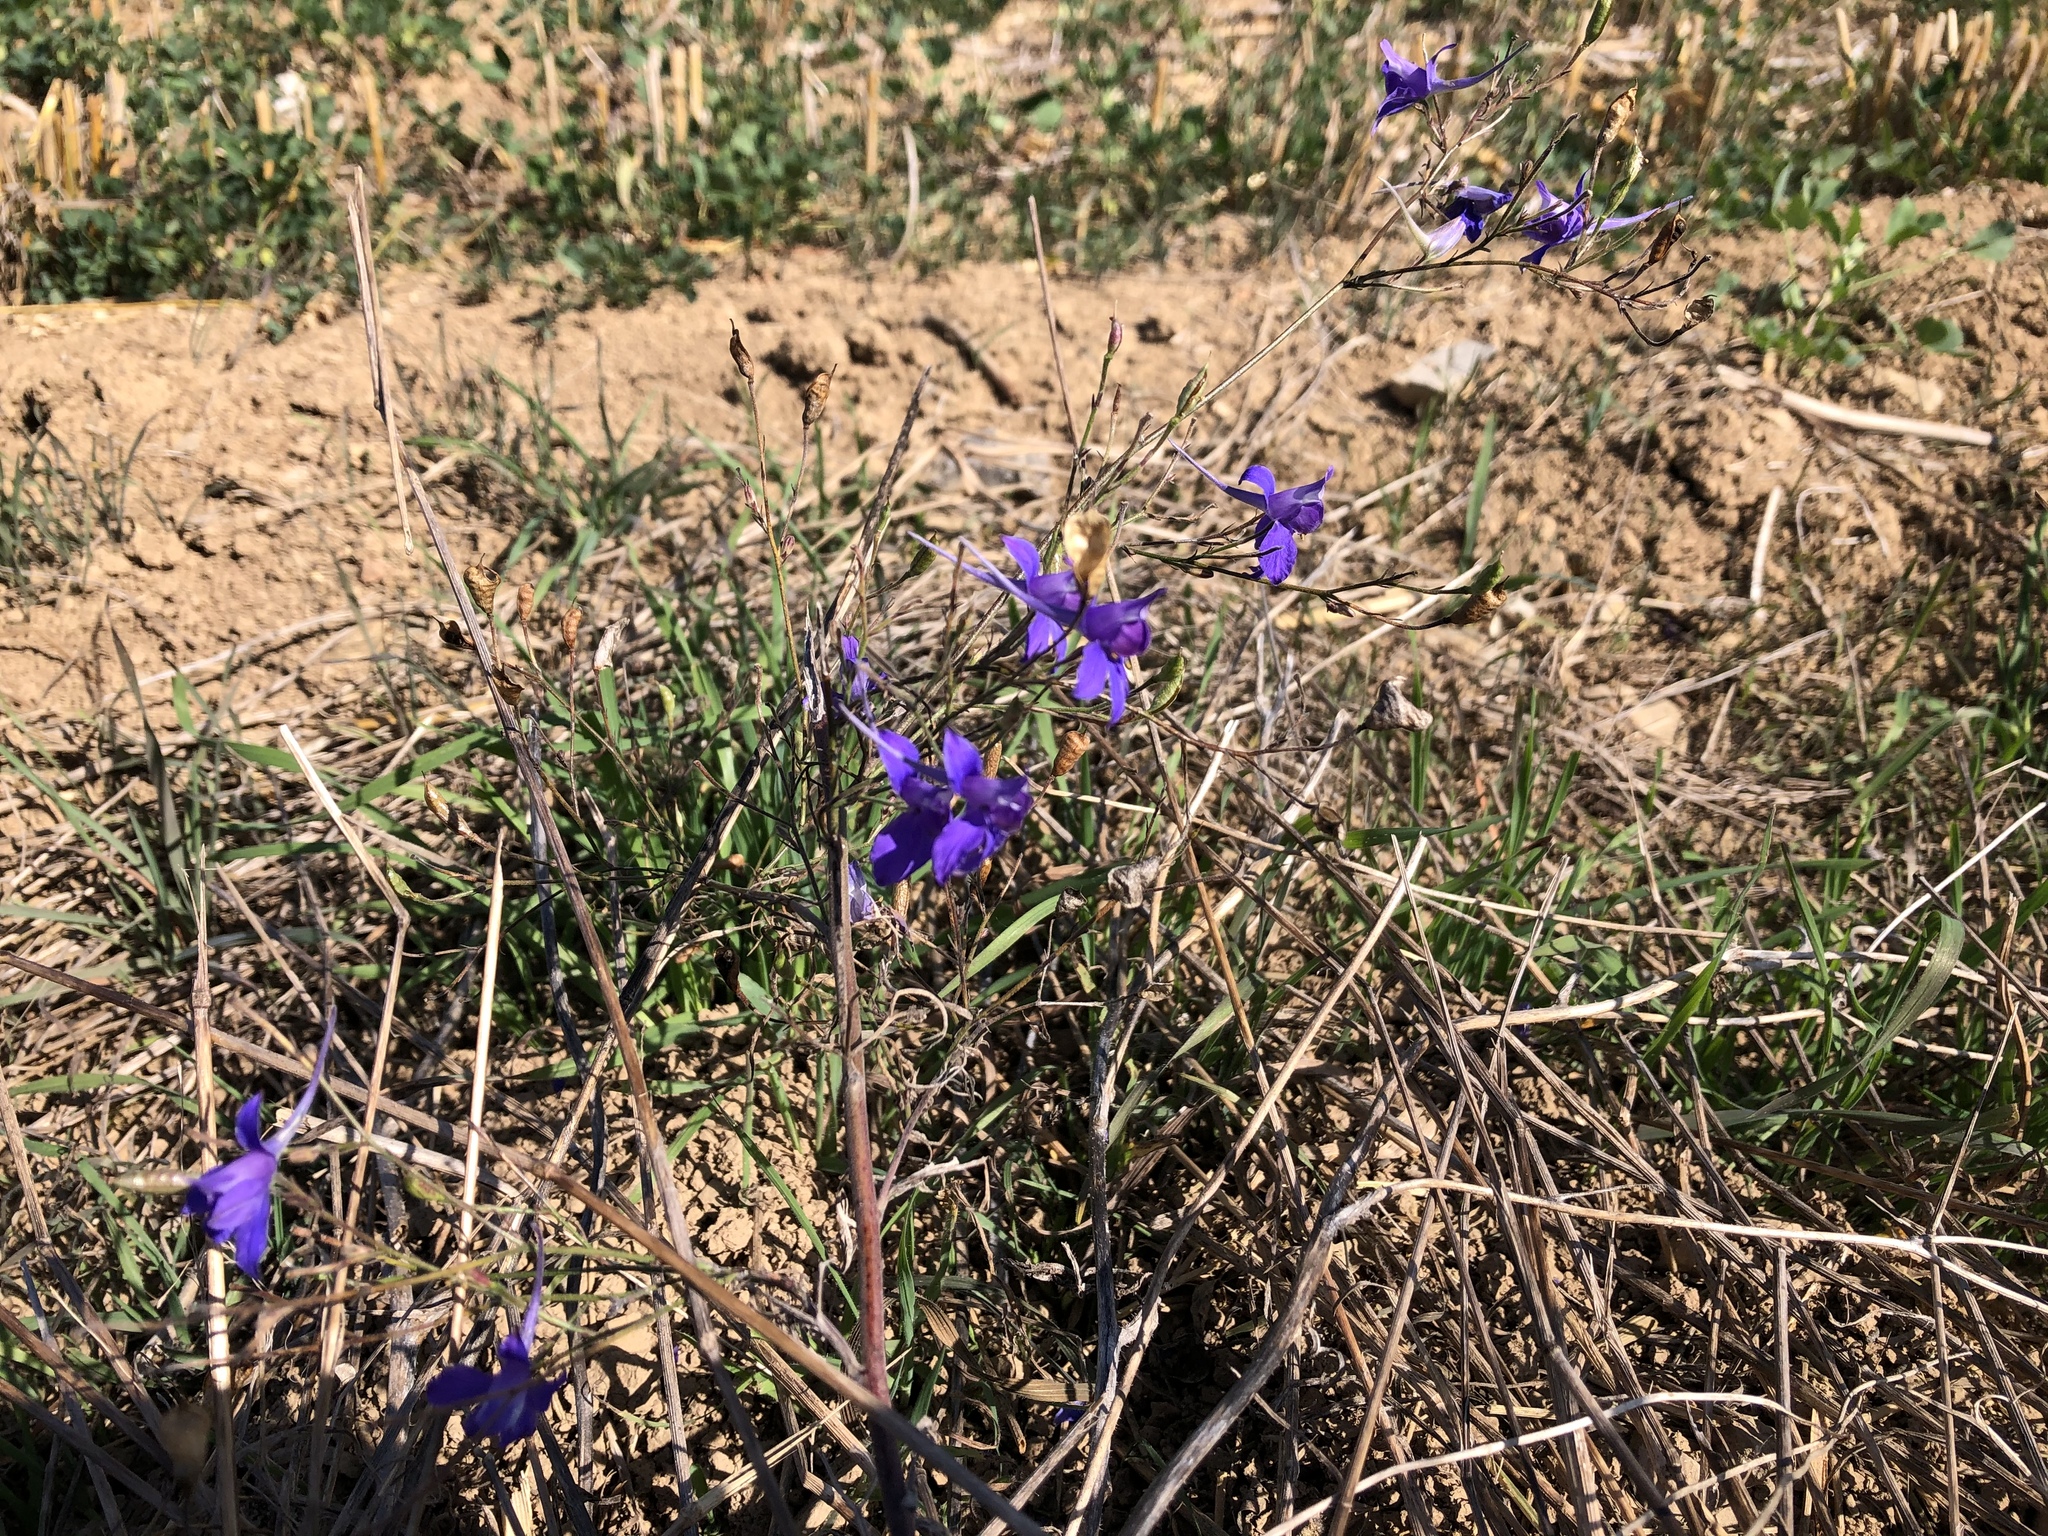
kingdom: Plantae
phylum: Tracheophyta
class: Magnoliopsida
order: Ranunculales
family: Ranunculaceae
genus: Delphinium
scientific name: Delphinium consolida
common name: Branching larkspur
